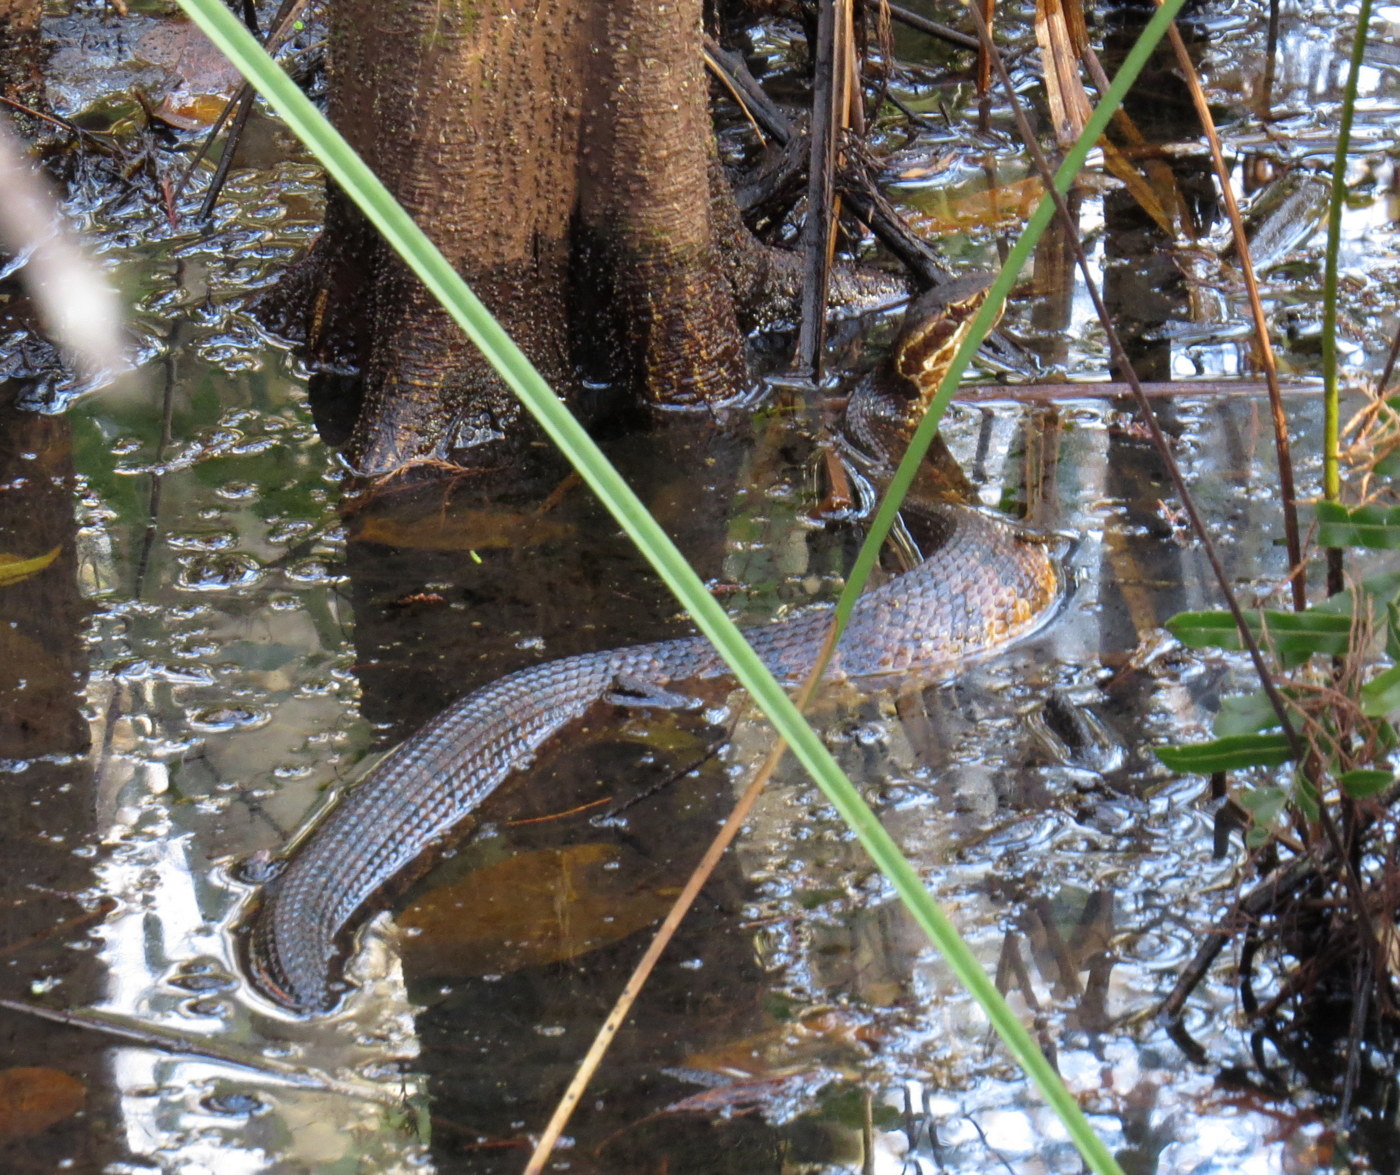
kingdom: Animalia
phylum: Chordata
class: Squamata
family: Viperidae
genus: Agkistrodon
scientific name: Agkistrodon conanti
